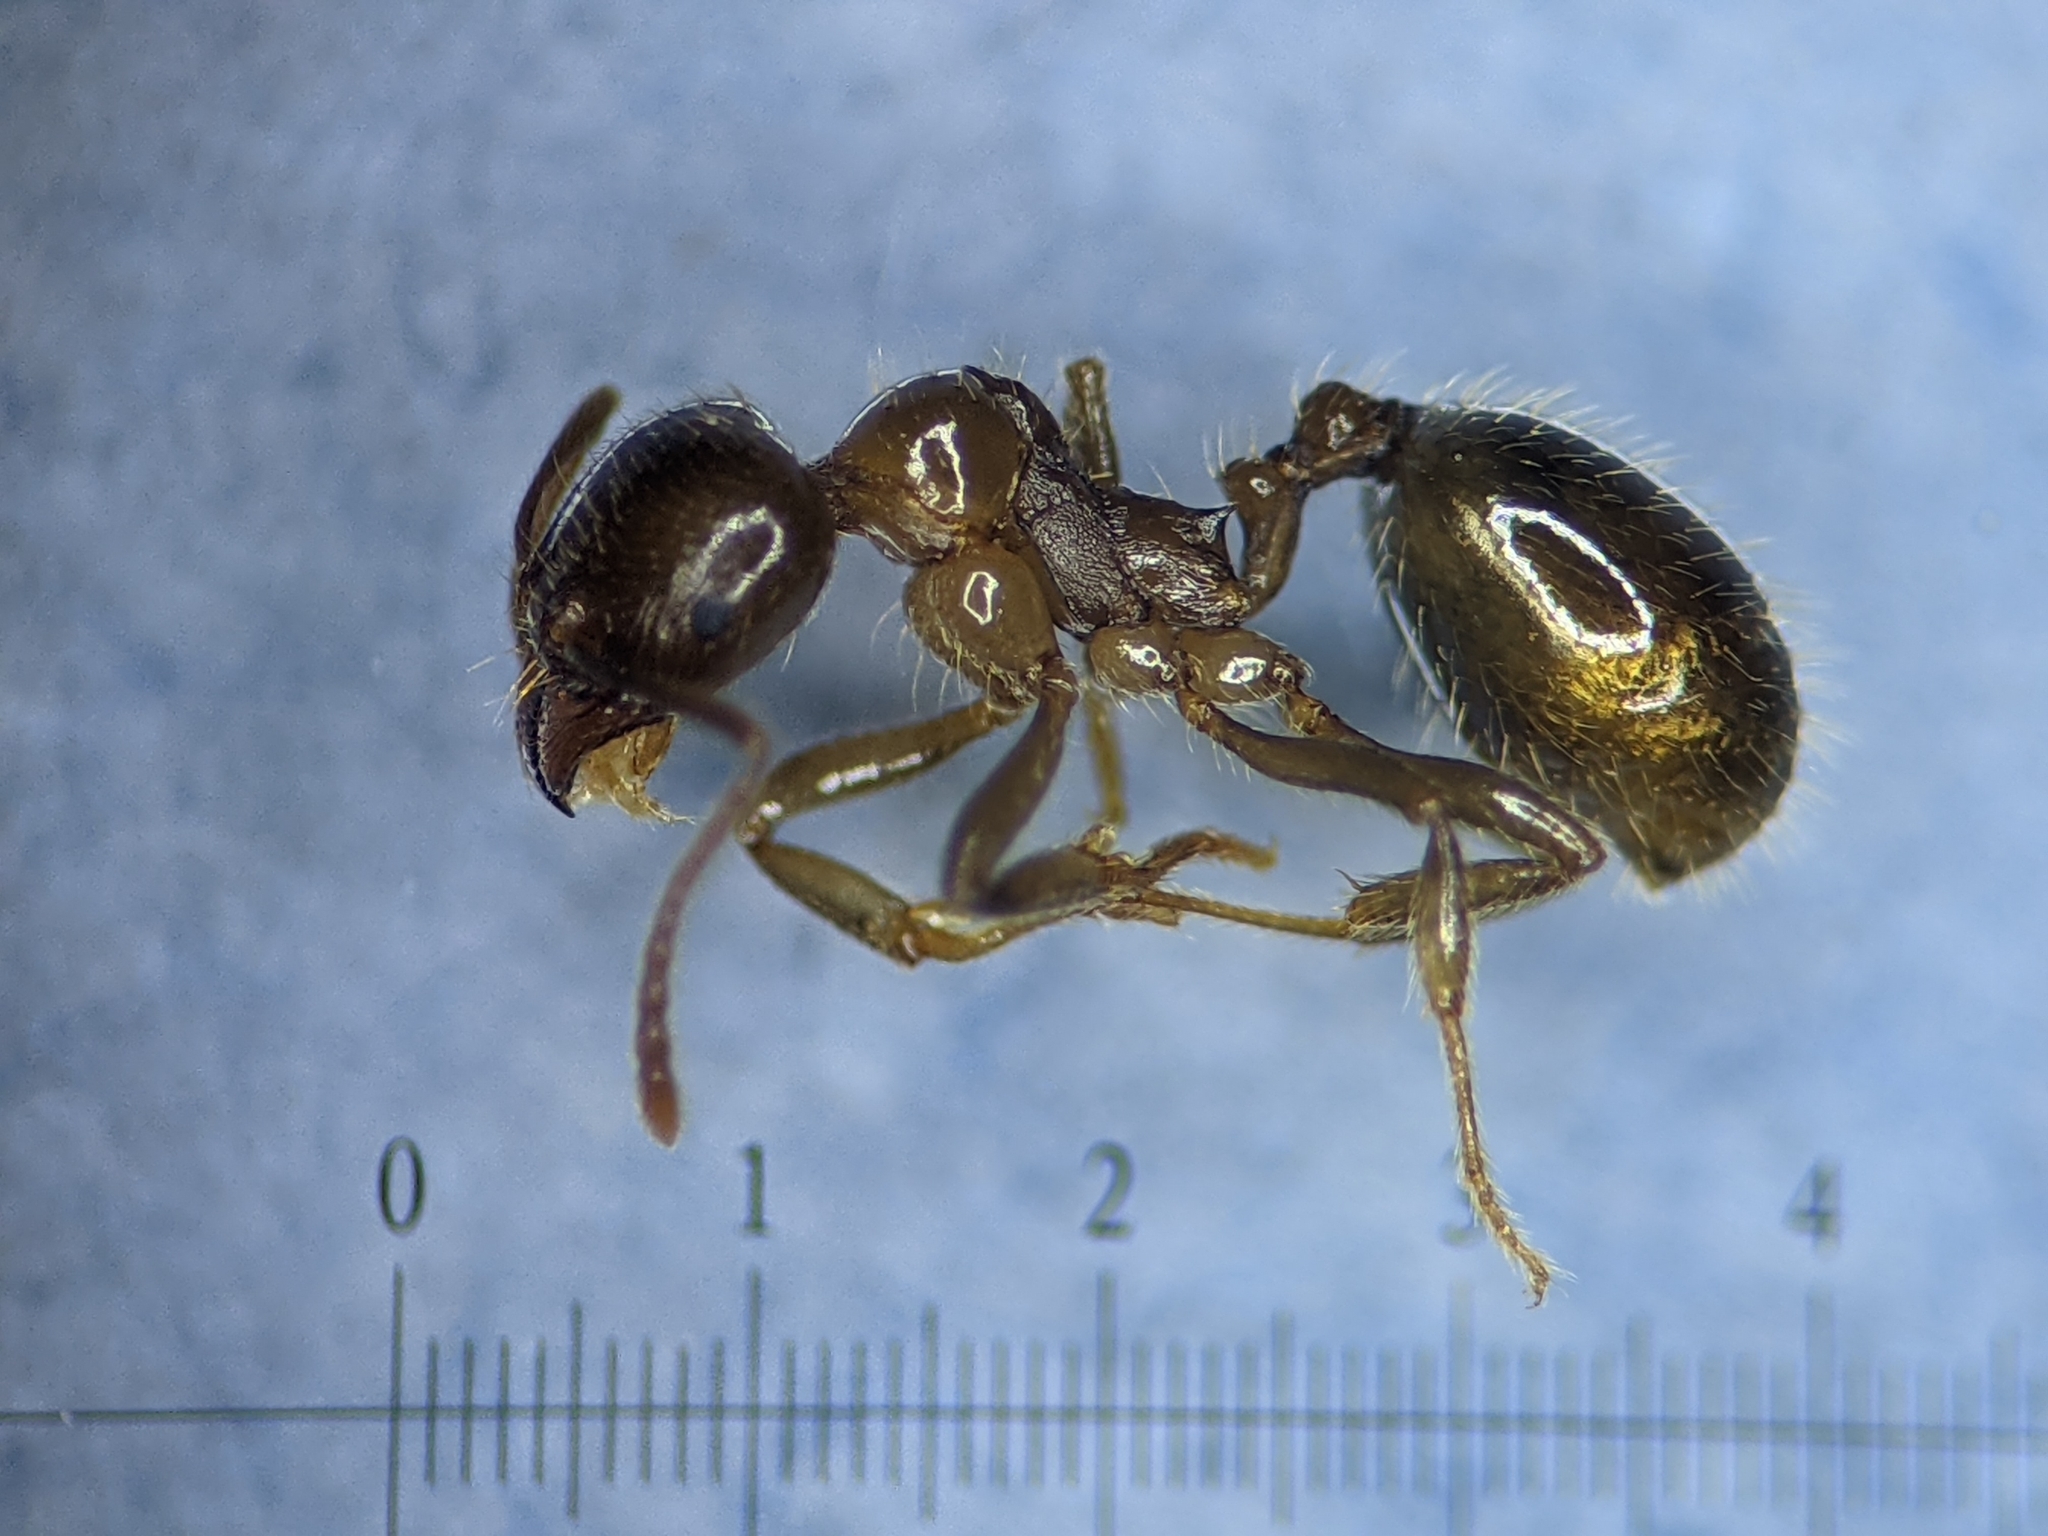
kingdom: Animalia
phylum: Arthropoda
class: Insecta
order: Hymenoptera
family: Formicidae
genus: Aphaenogaster
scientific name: Aphaenogaster dulcineae
